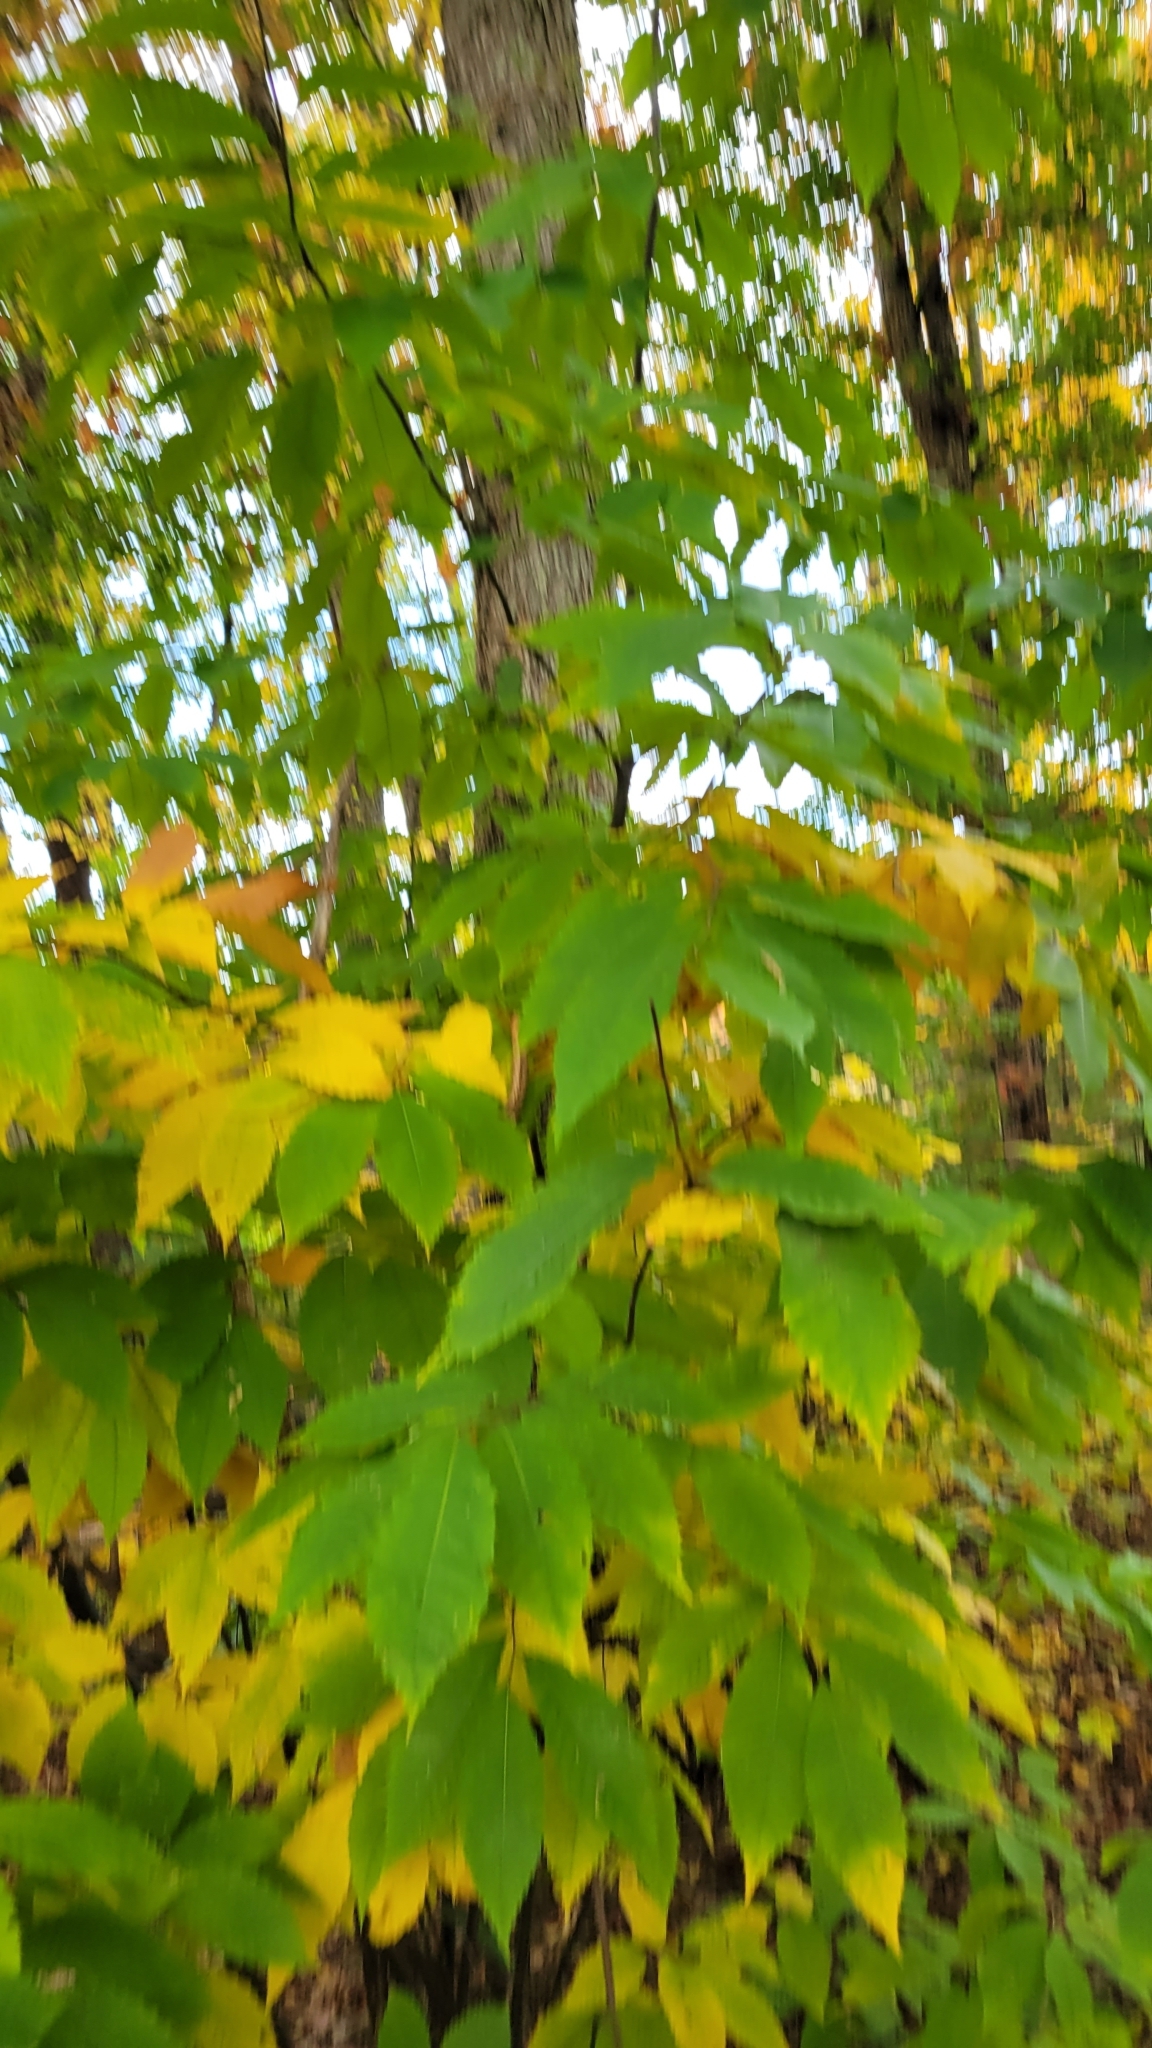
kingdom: Plantae
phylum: Tracheophyta
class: Magnoliopsida
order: Fagales
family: Fagaceae
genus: Castanea
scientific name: Castanea dentata
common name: American chestnut
